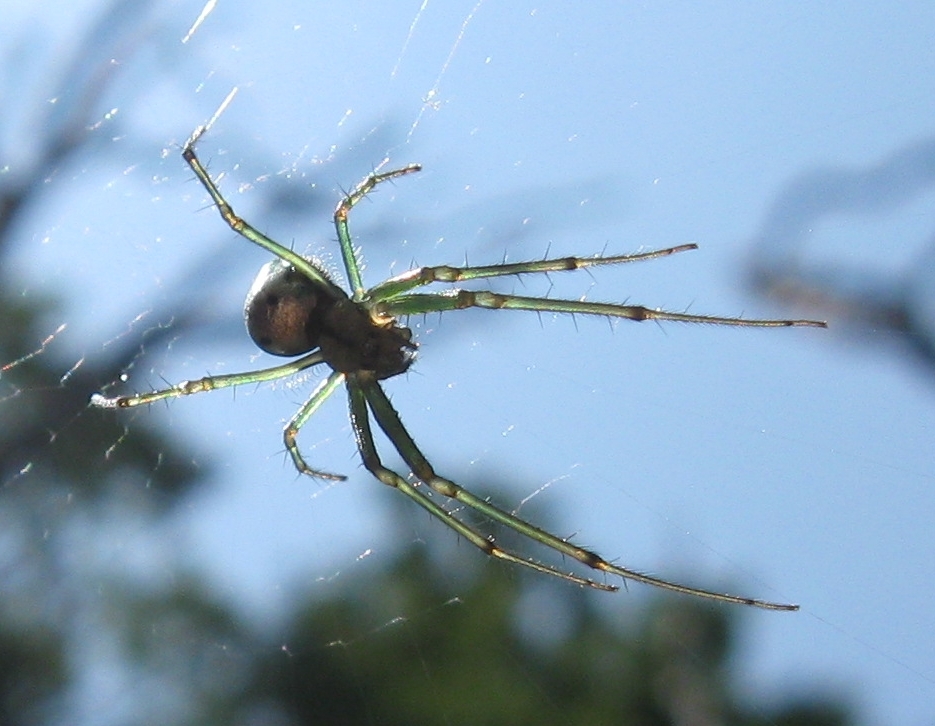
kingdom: Animalia
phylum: Arthropoda
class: Arachnida
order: Araneae
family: Tetragnathidae
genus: Leucauge
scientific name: Leucauge venusta
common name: Longjawed orb weavers
